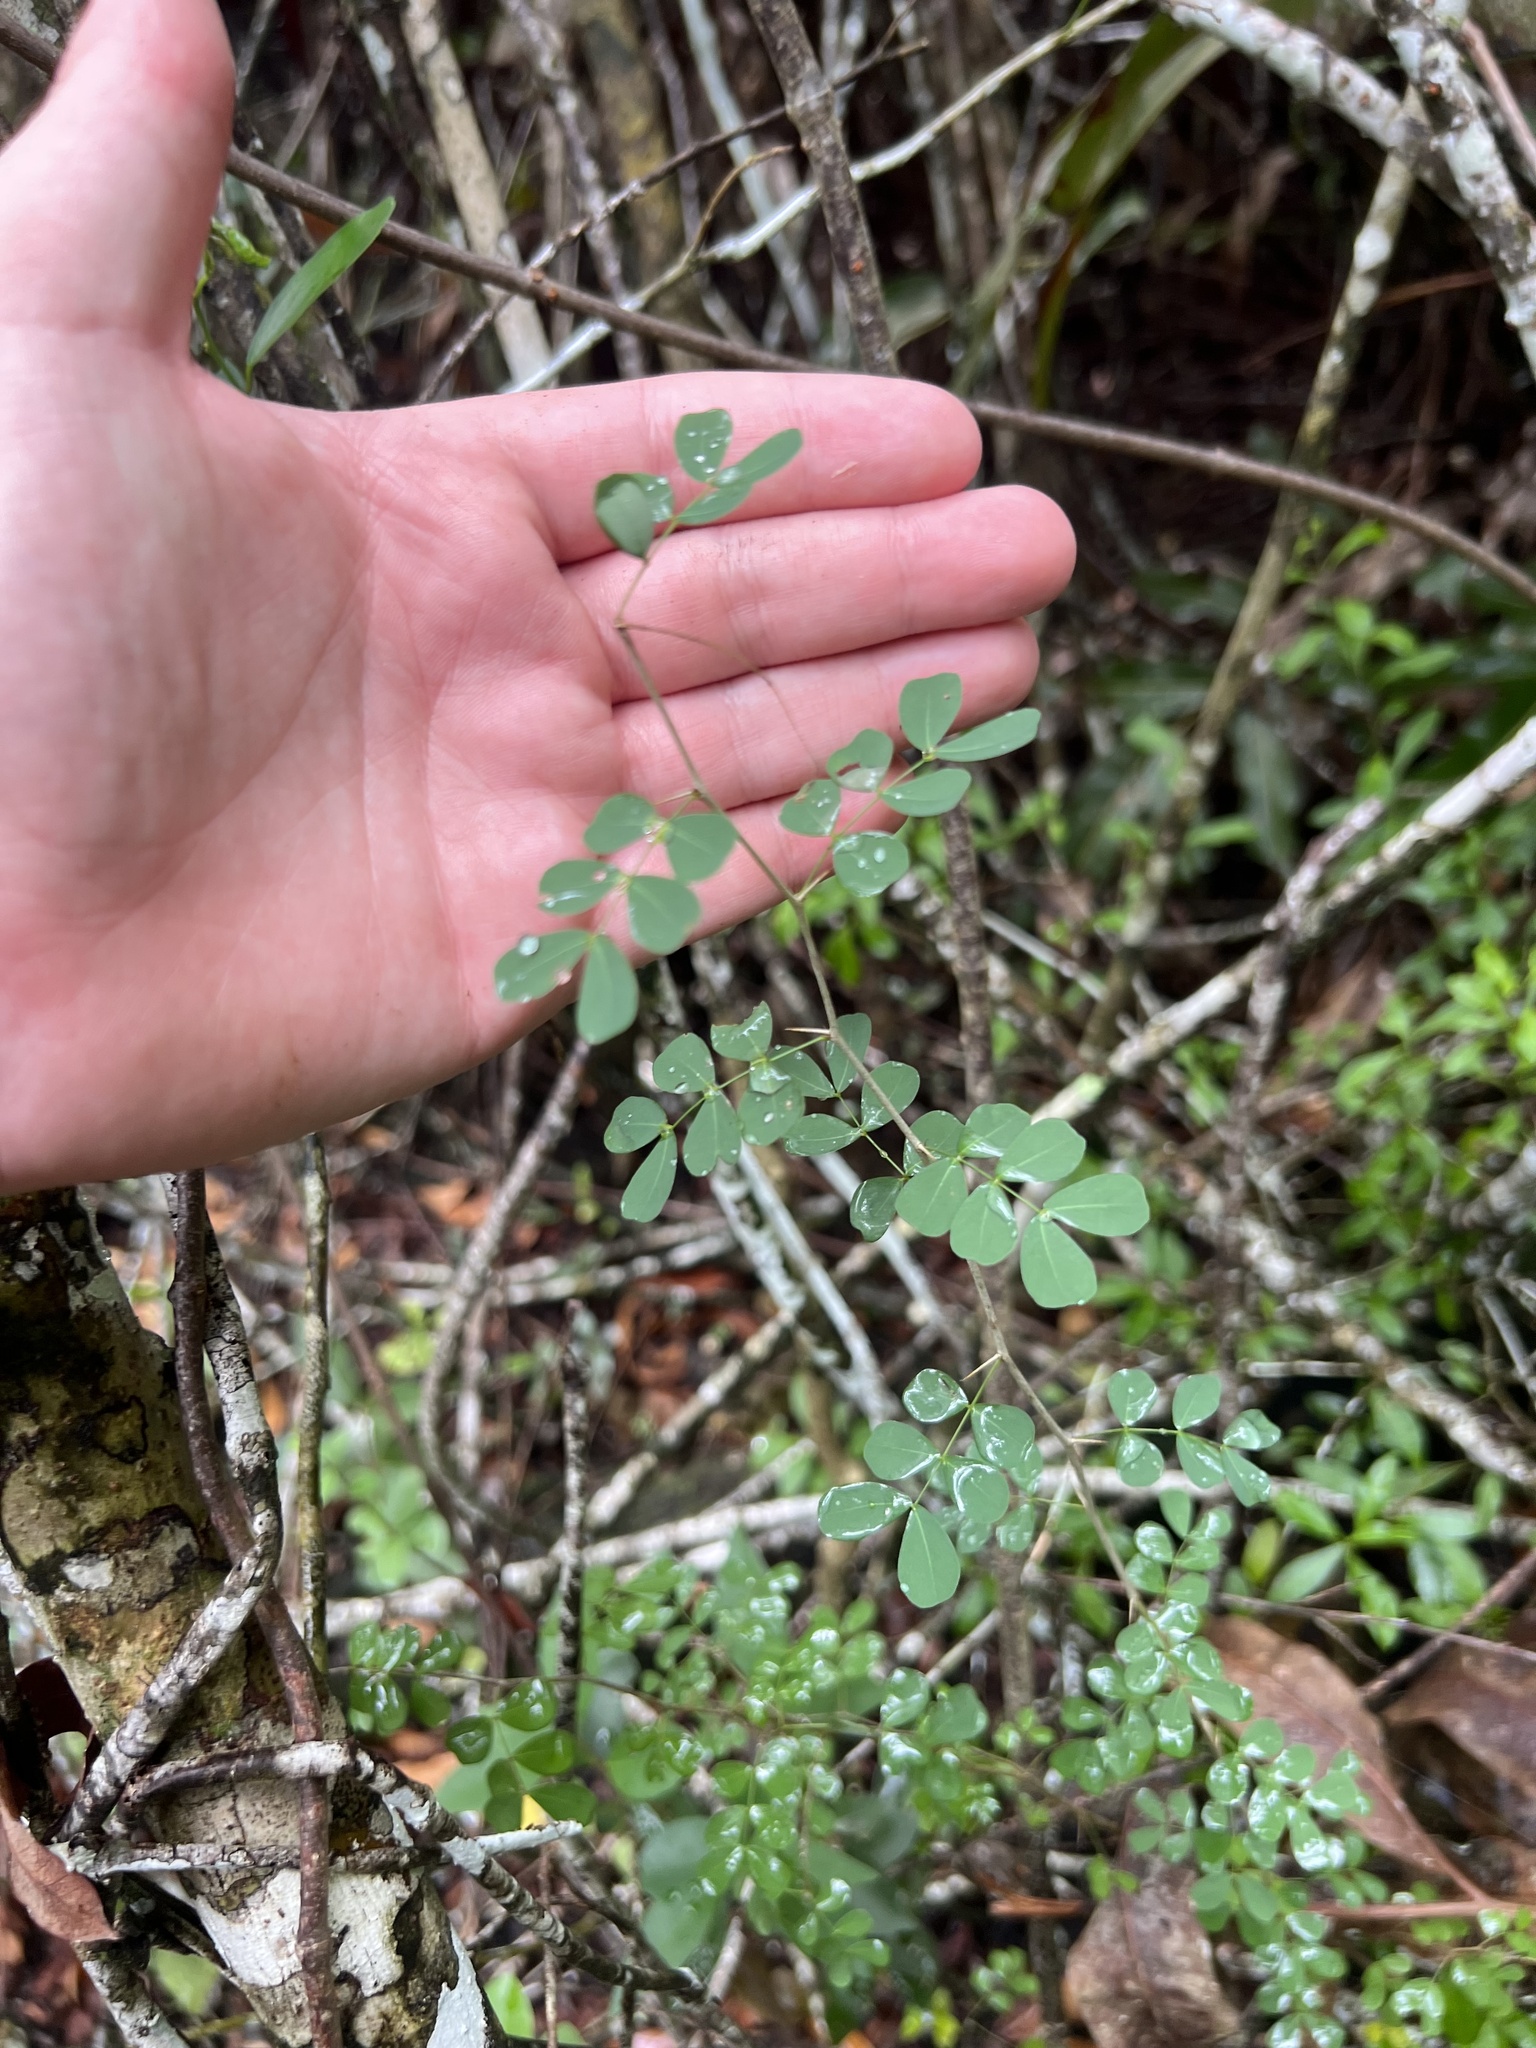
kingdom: Plantae
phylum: Tracheophyta
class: Magnoliopsida
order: Fabales
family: Fabaceae
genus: Haematoxylum
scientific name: Haematoxylum campechianum
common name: Logwood
